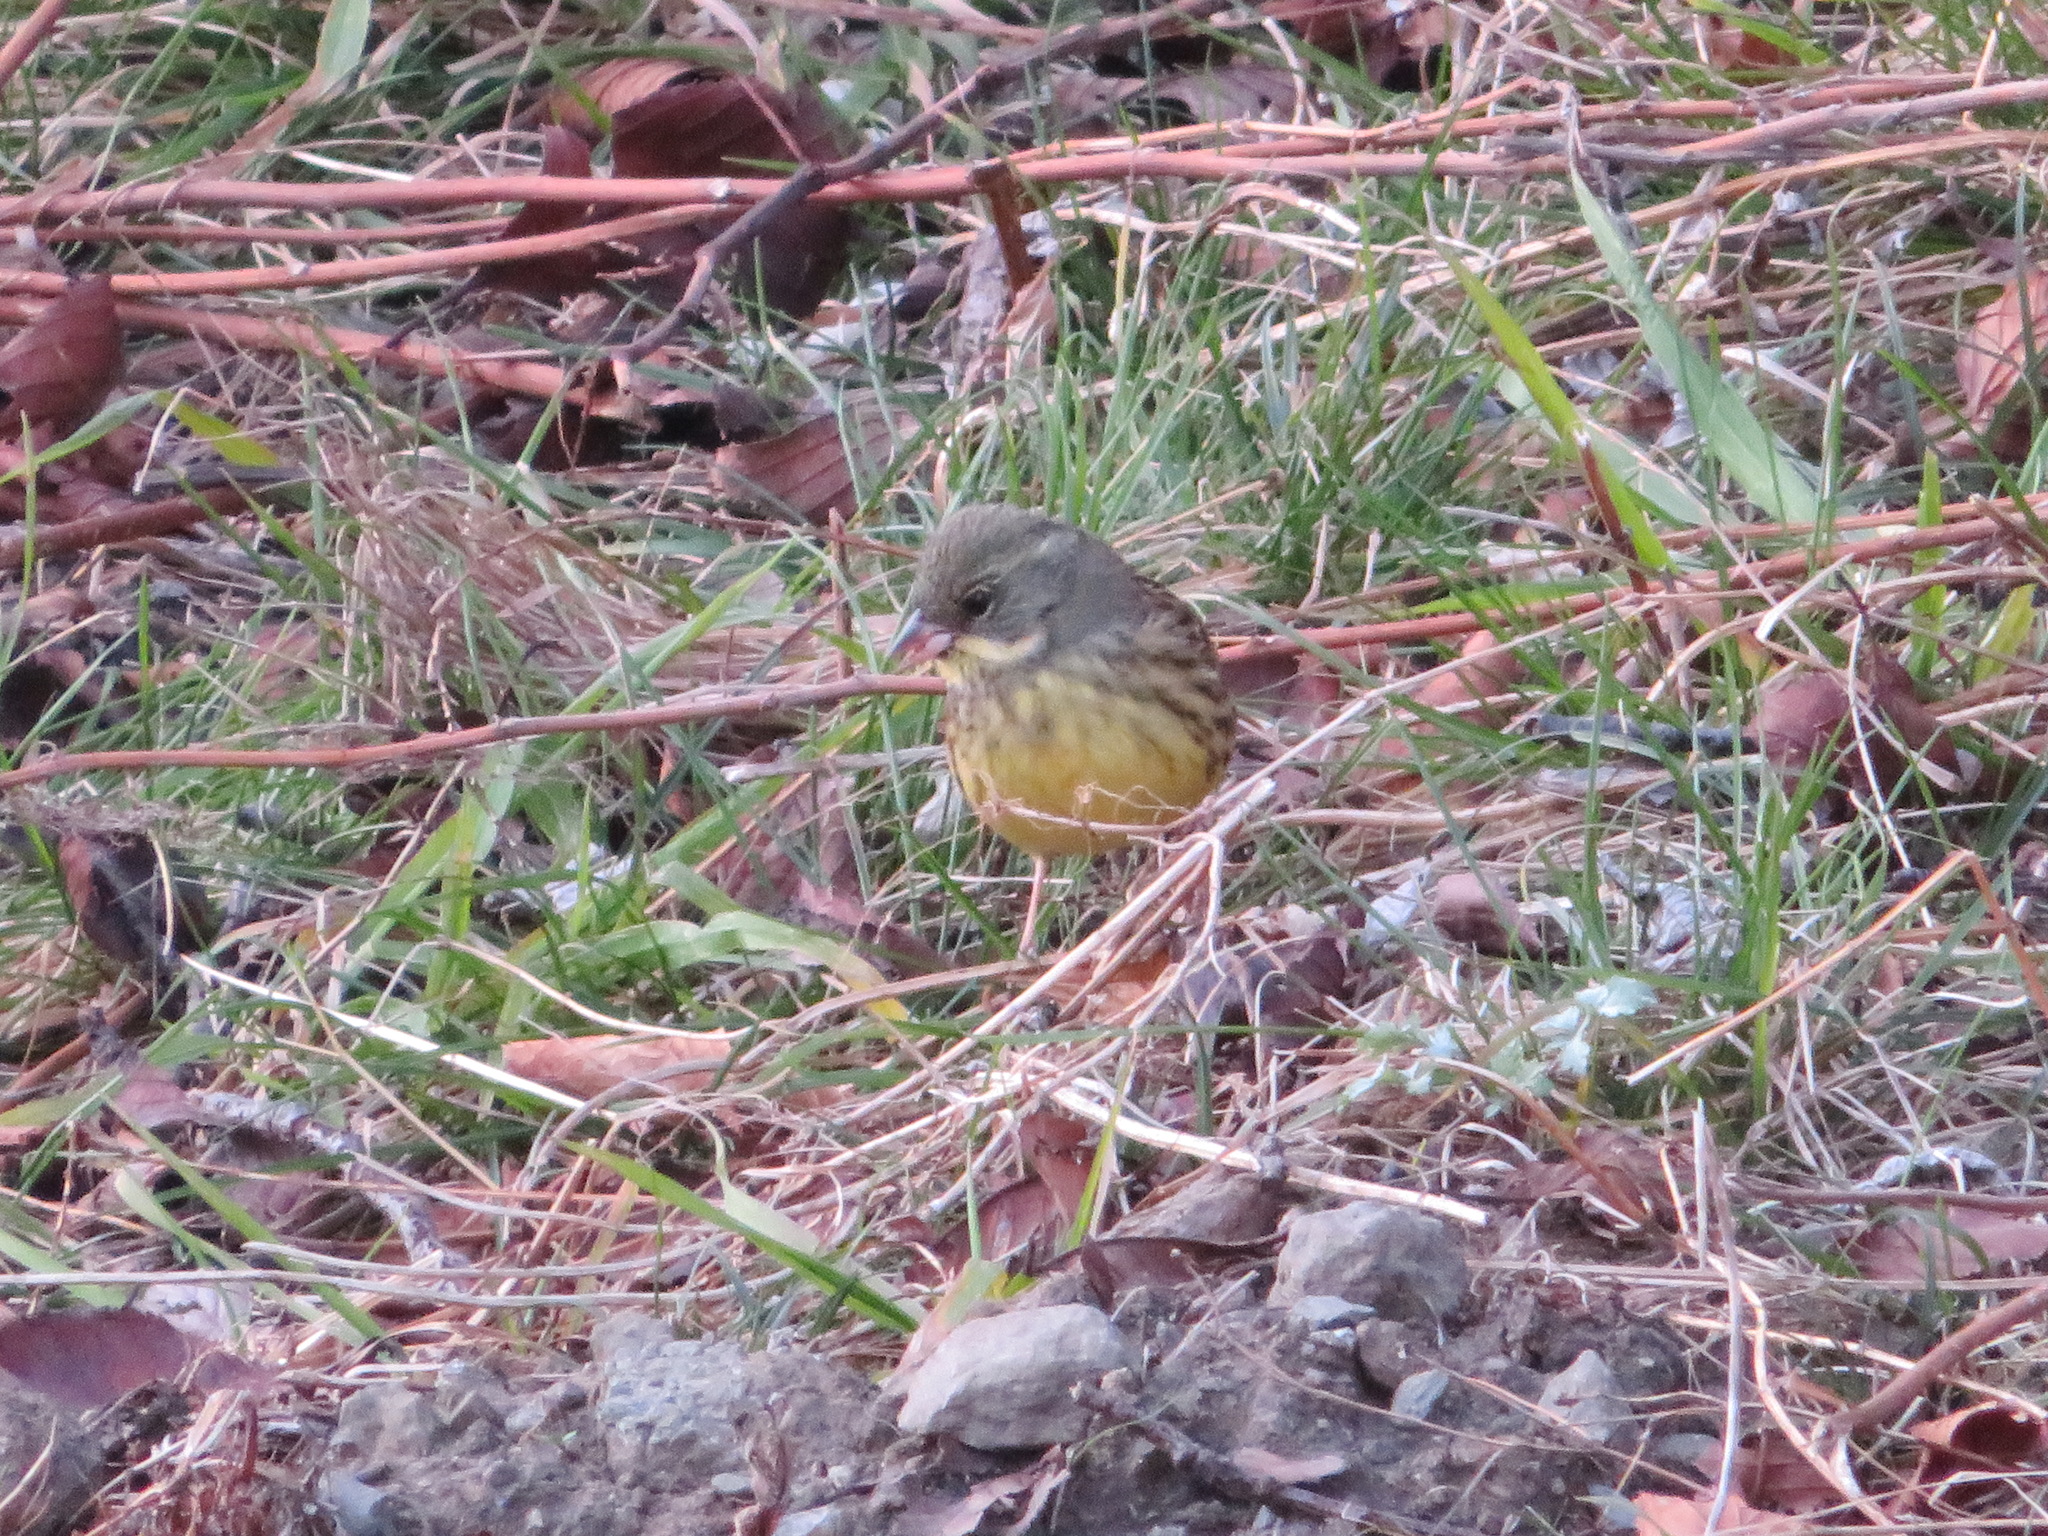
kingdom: Animalia
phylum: Chordata
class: Aves
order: Passeriformes
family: Emberizidae
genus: Emberiza
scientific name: Emberiza personata
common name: Masked bunting
